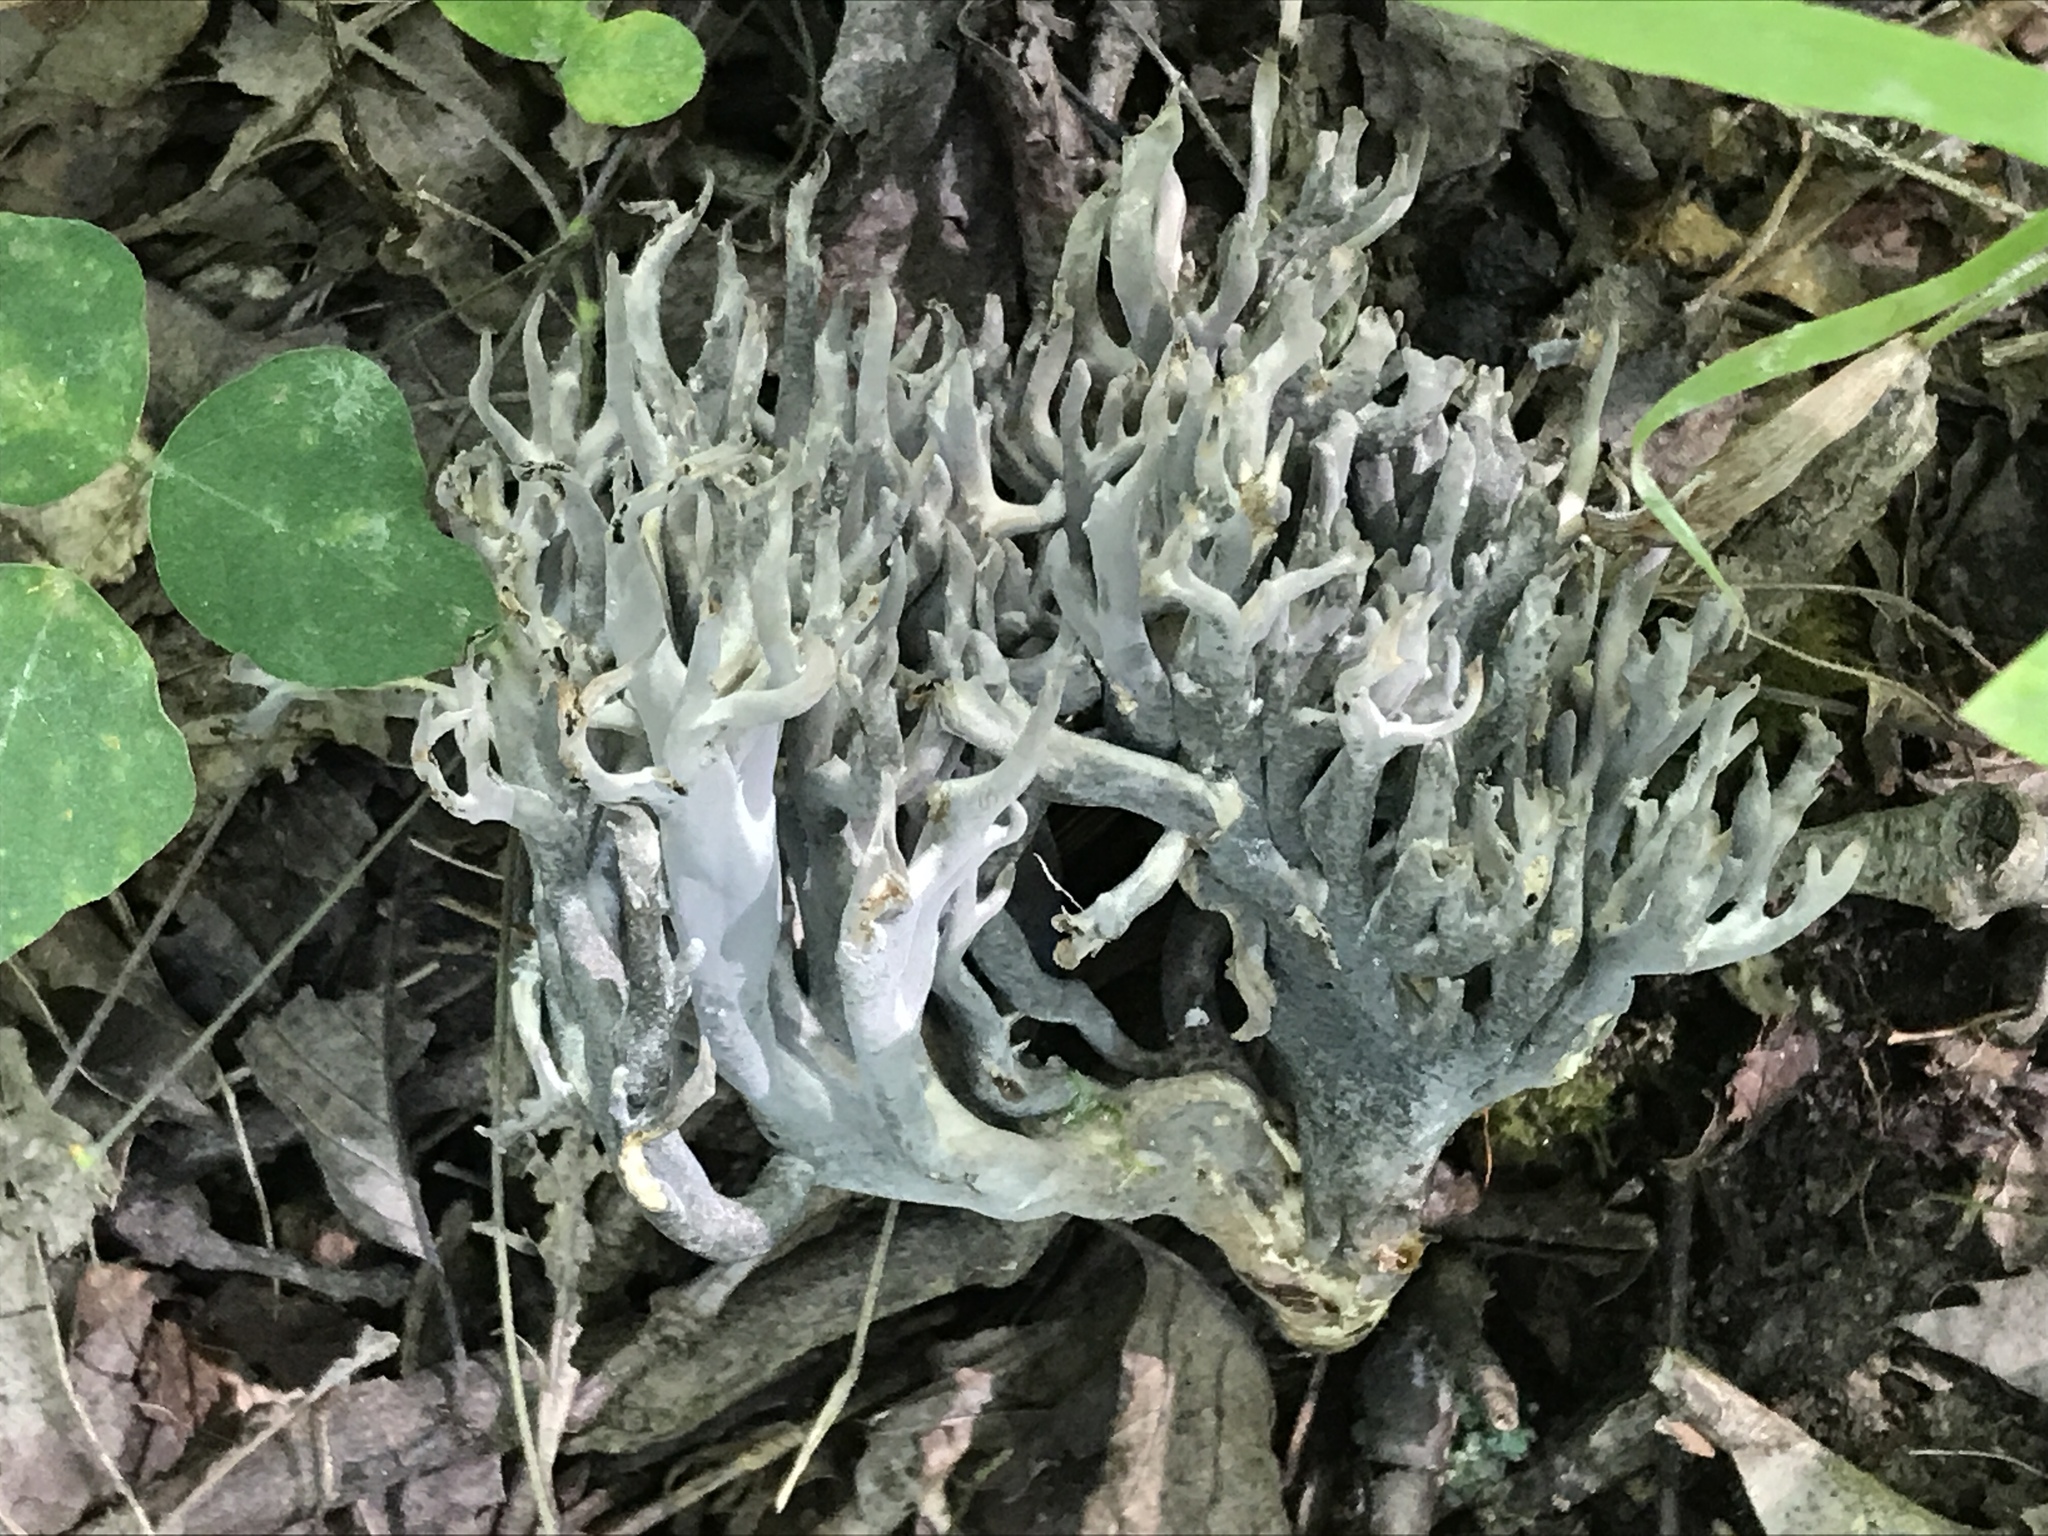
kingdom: Fungi
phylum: Ascomycota
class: Sordariomycetes
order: Sordariales
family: Helminthosphaeriaceae
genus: Helminthosphaeria
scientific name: Helminthosphaeria clavariarum
